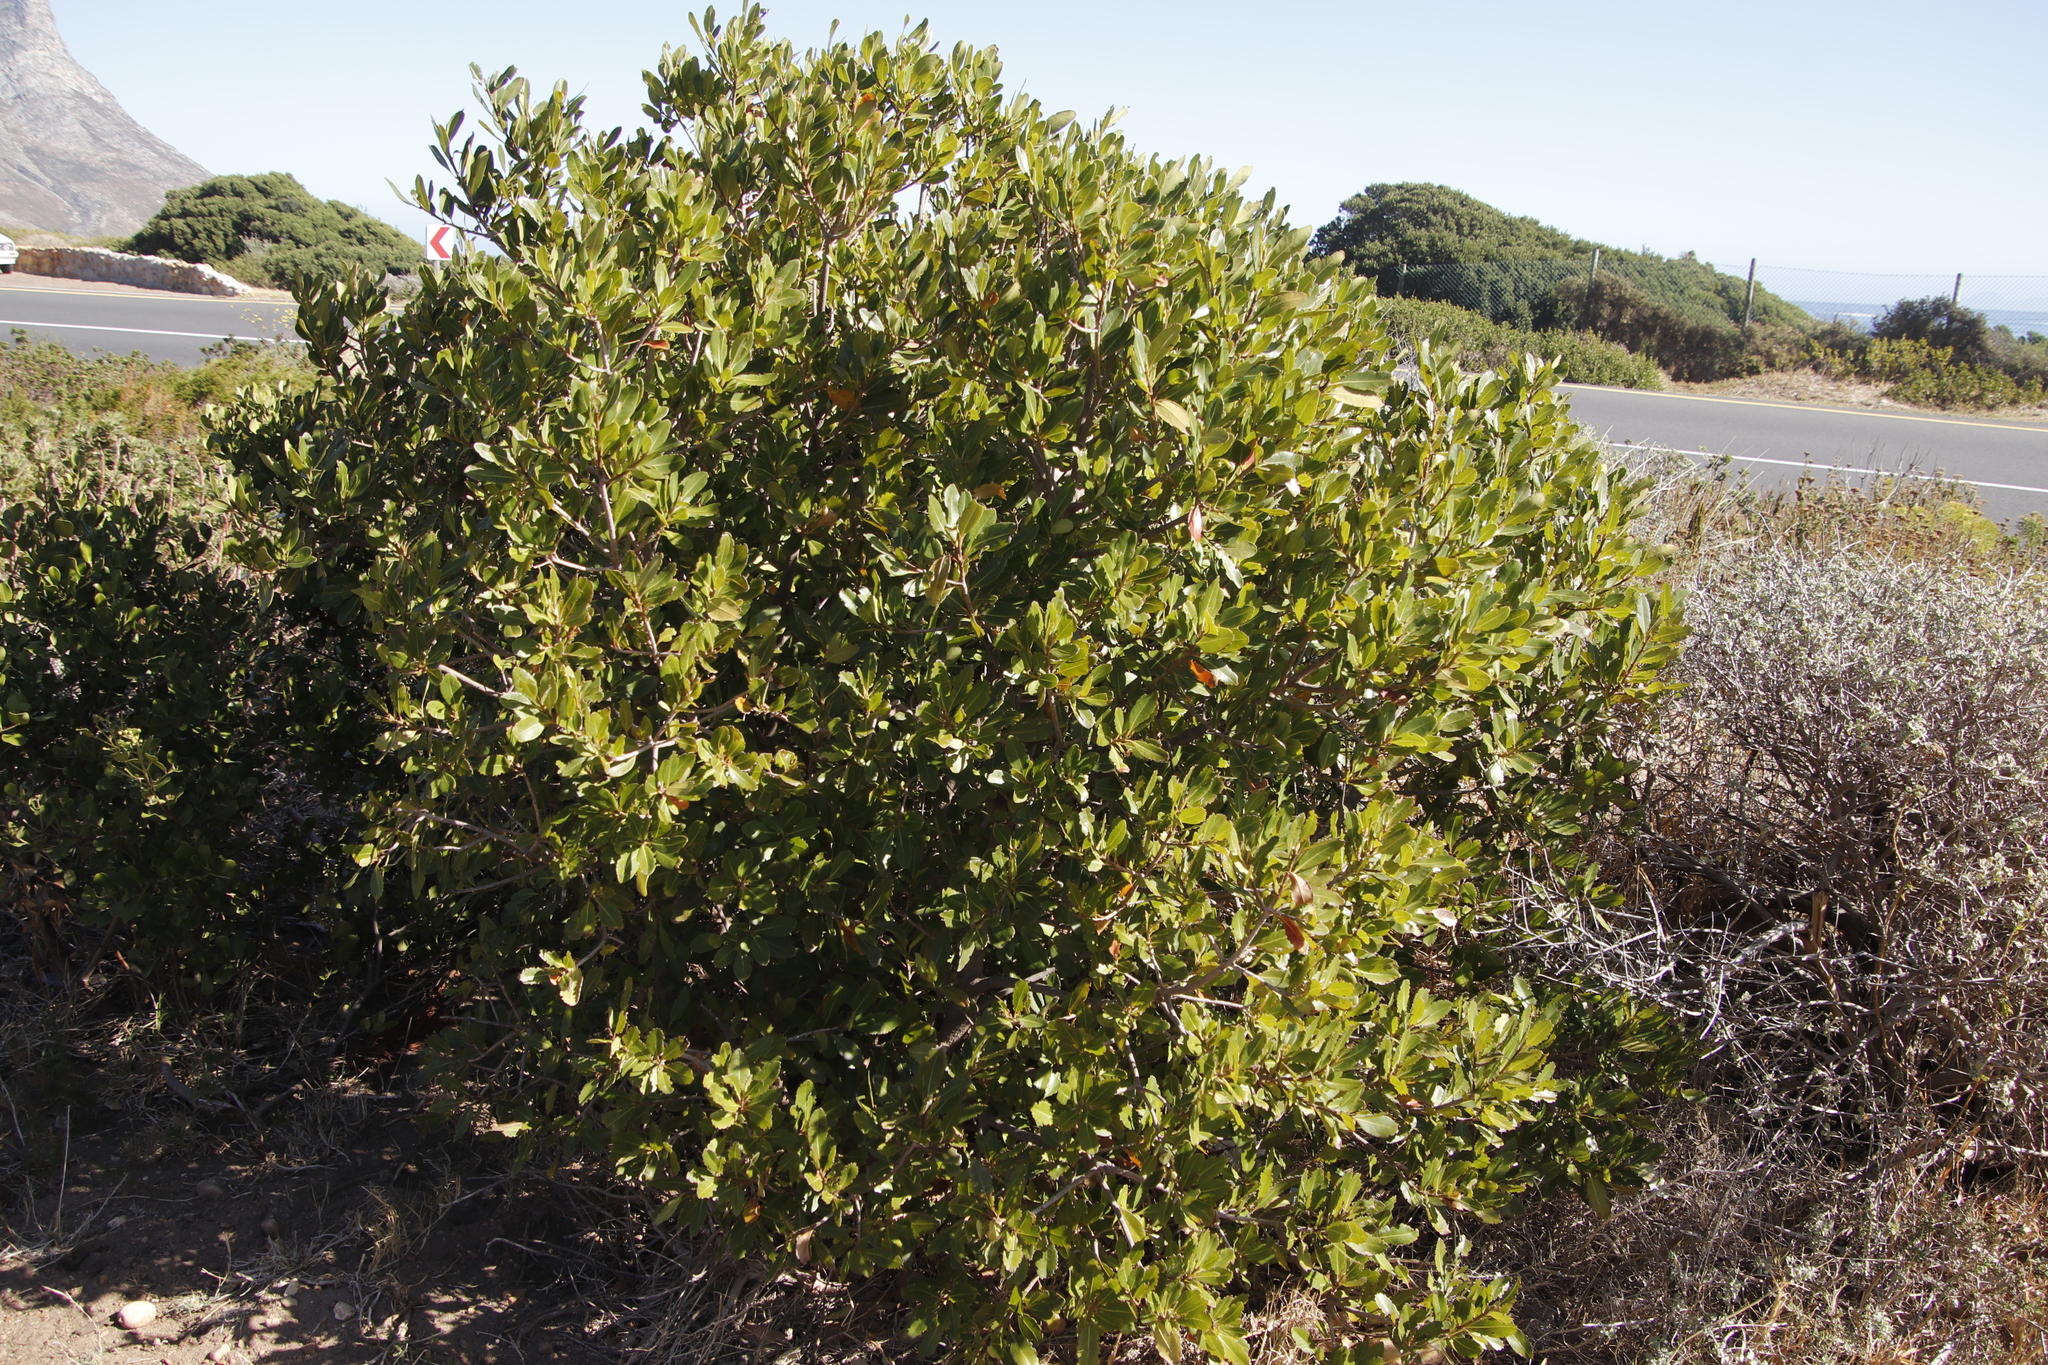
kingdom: Plantae
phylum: Tracheophyta
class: Magnoliopsida
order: Ericales
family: Sapotaceae
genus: Sideroxylon
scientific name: Sideroxylon inerme
